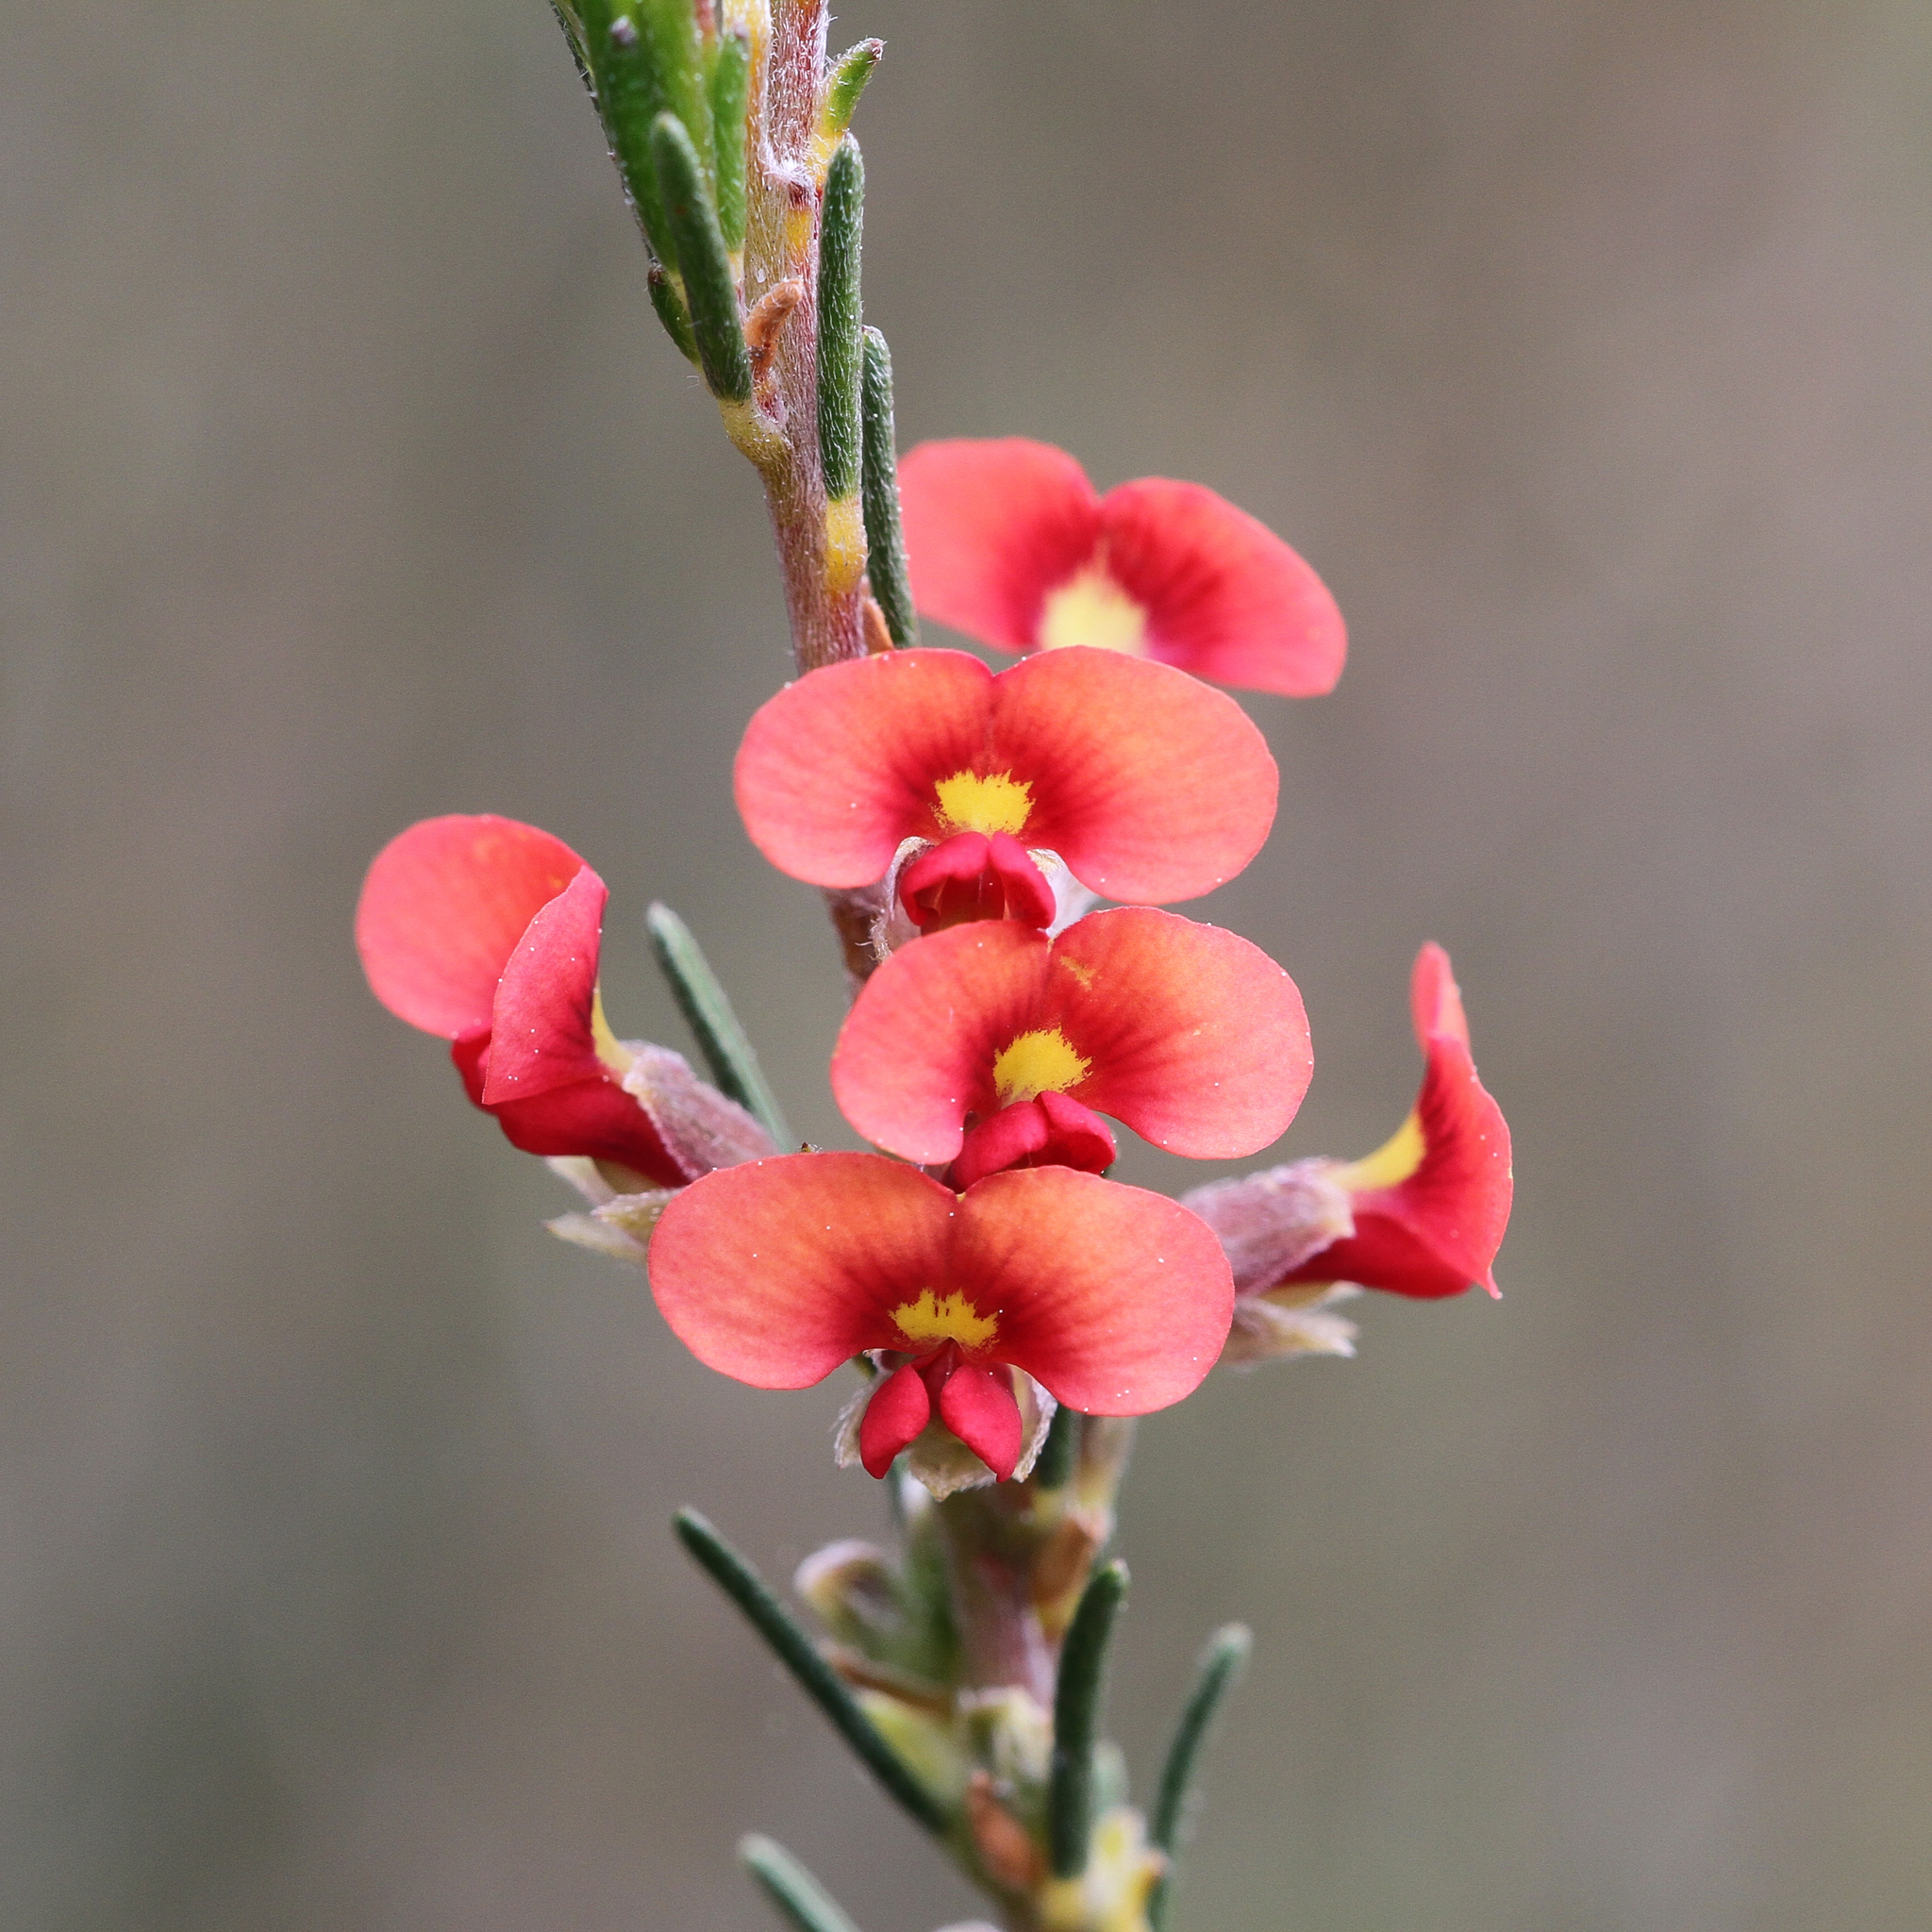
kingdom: Plantae
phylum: Tracheophyta
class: Magnoliopsida
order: Fabales
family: Fabaceae
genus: Dillwynia
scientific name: Dillwynia sericea
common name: Showy parrot-pea
